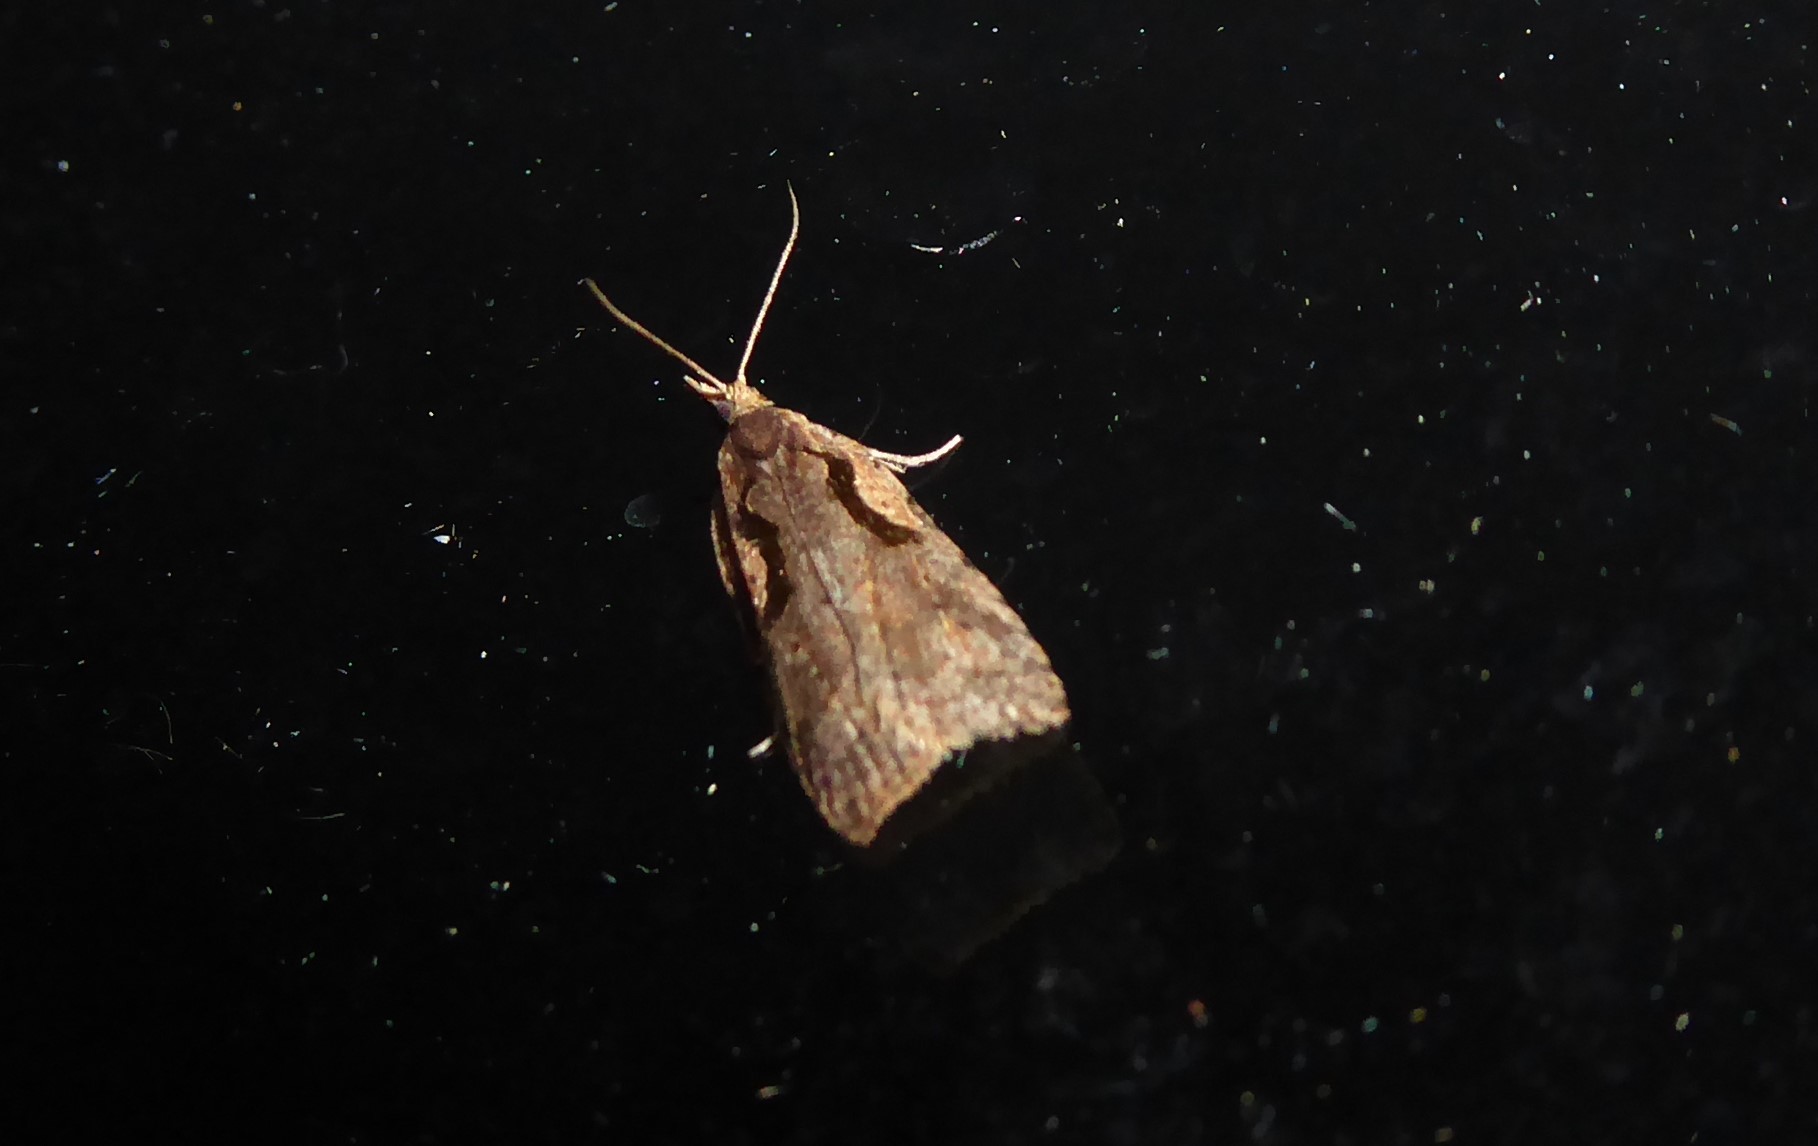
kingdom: Animalia
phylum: Arthropoda
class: Insecta
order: Lepidoptera
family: Tortricidae
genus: Cnephasia
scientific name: Cnephasia jactatana
